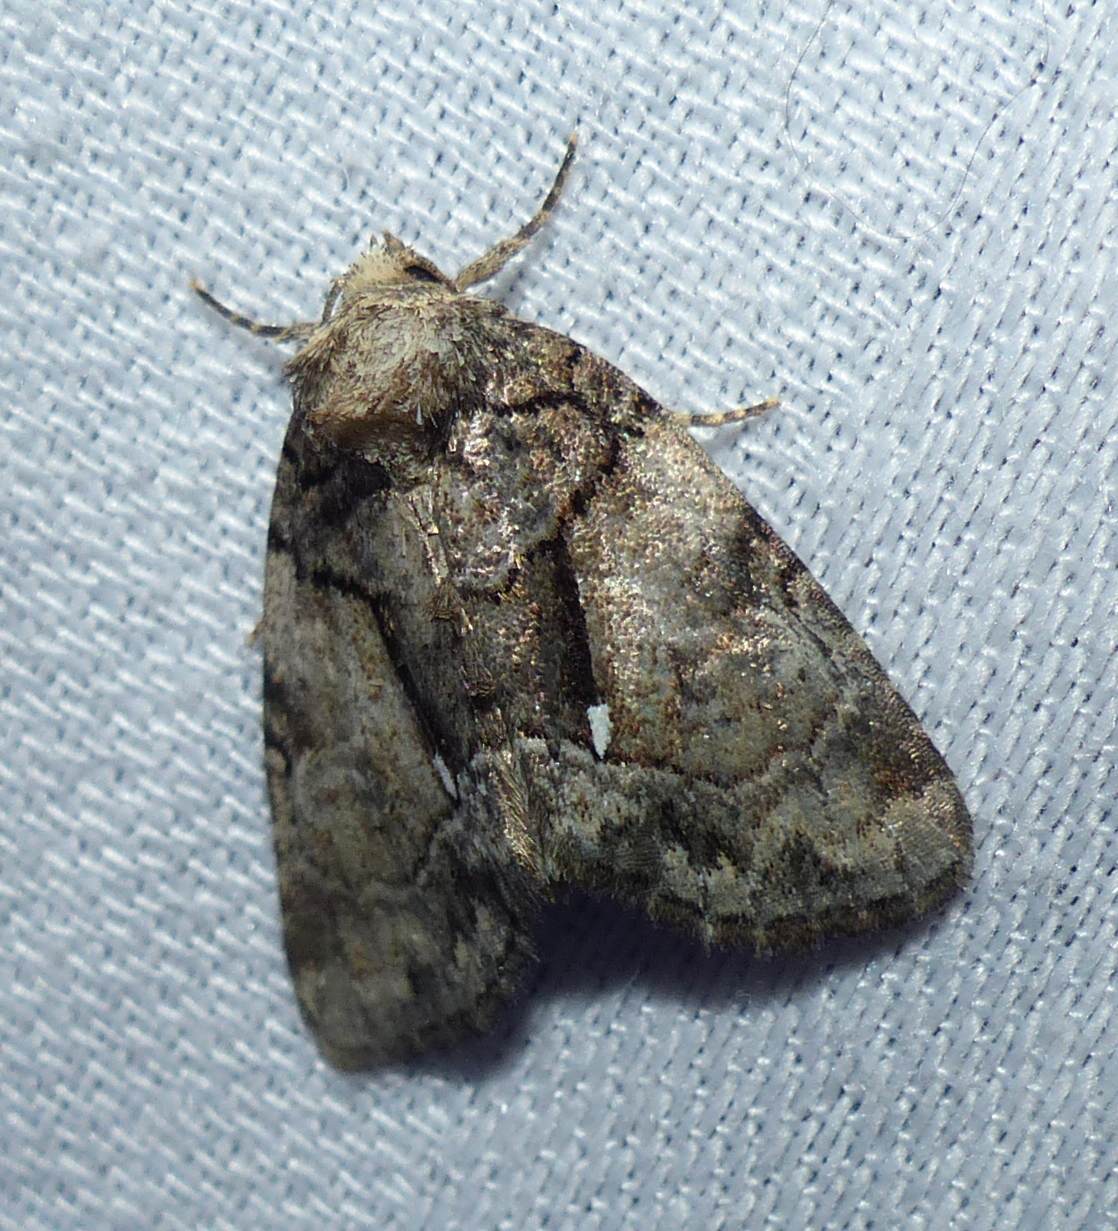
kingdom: Animalia
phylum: Arthropoda
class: Insecta
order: Lepidoptera
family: Noctuidae
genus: Chytonix
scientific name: Chytonix palliatricula
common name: Cloaked marvel
